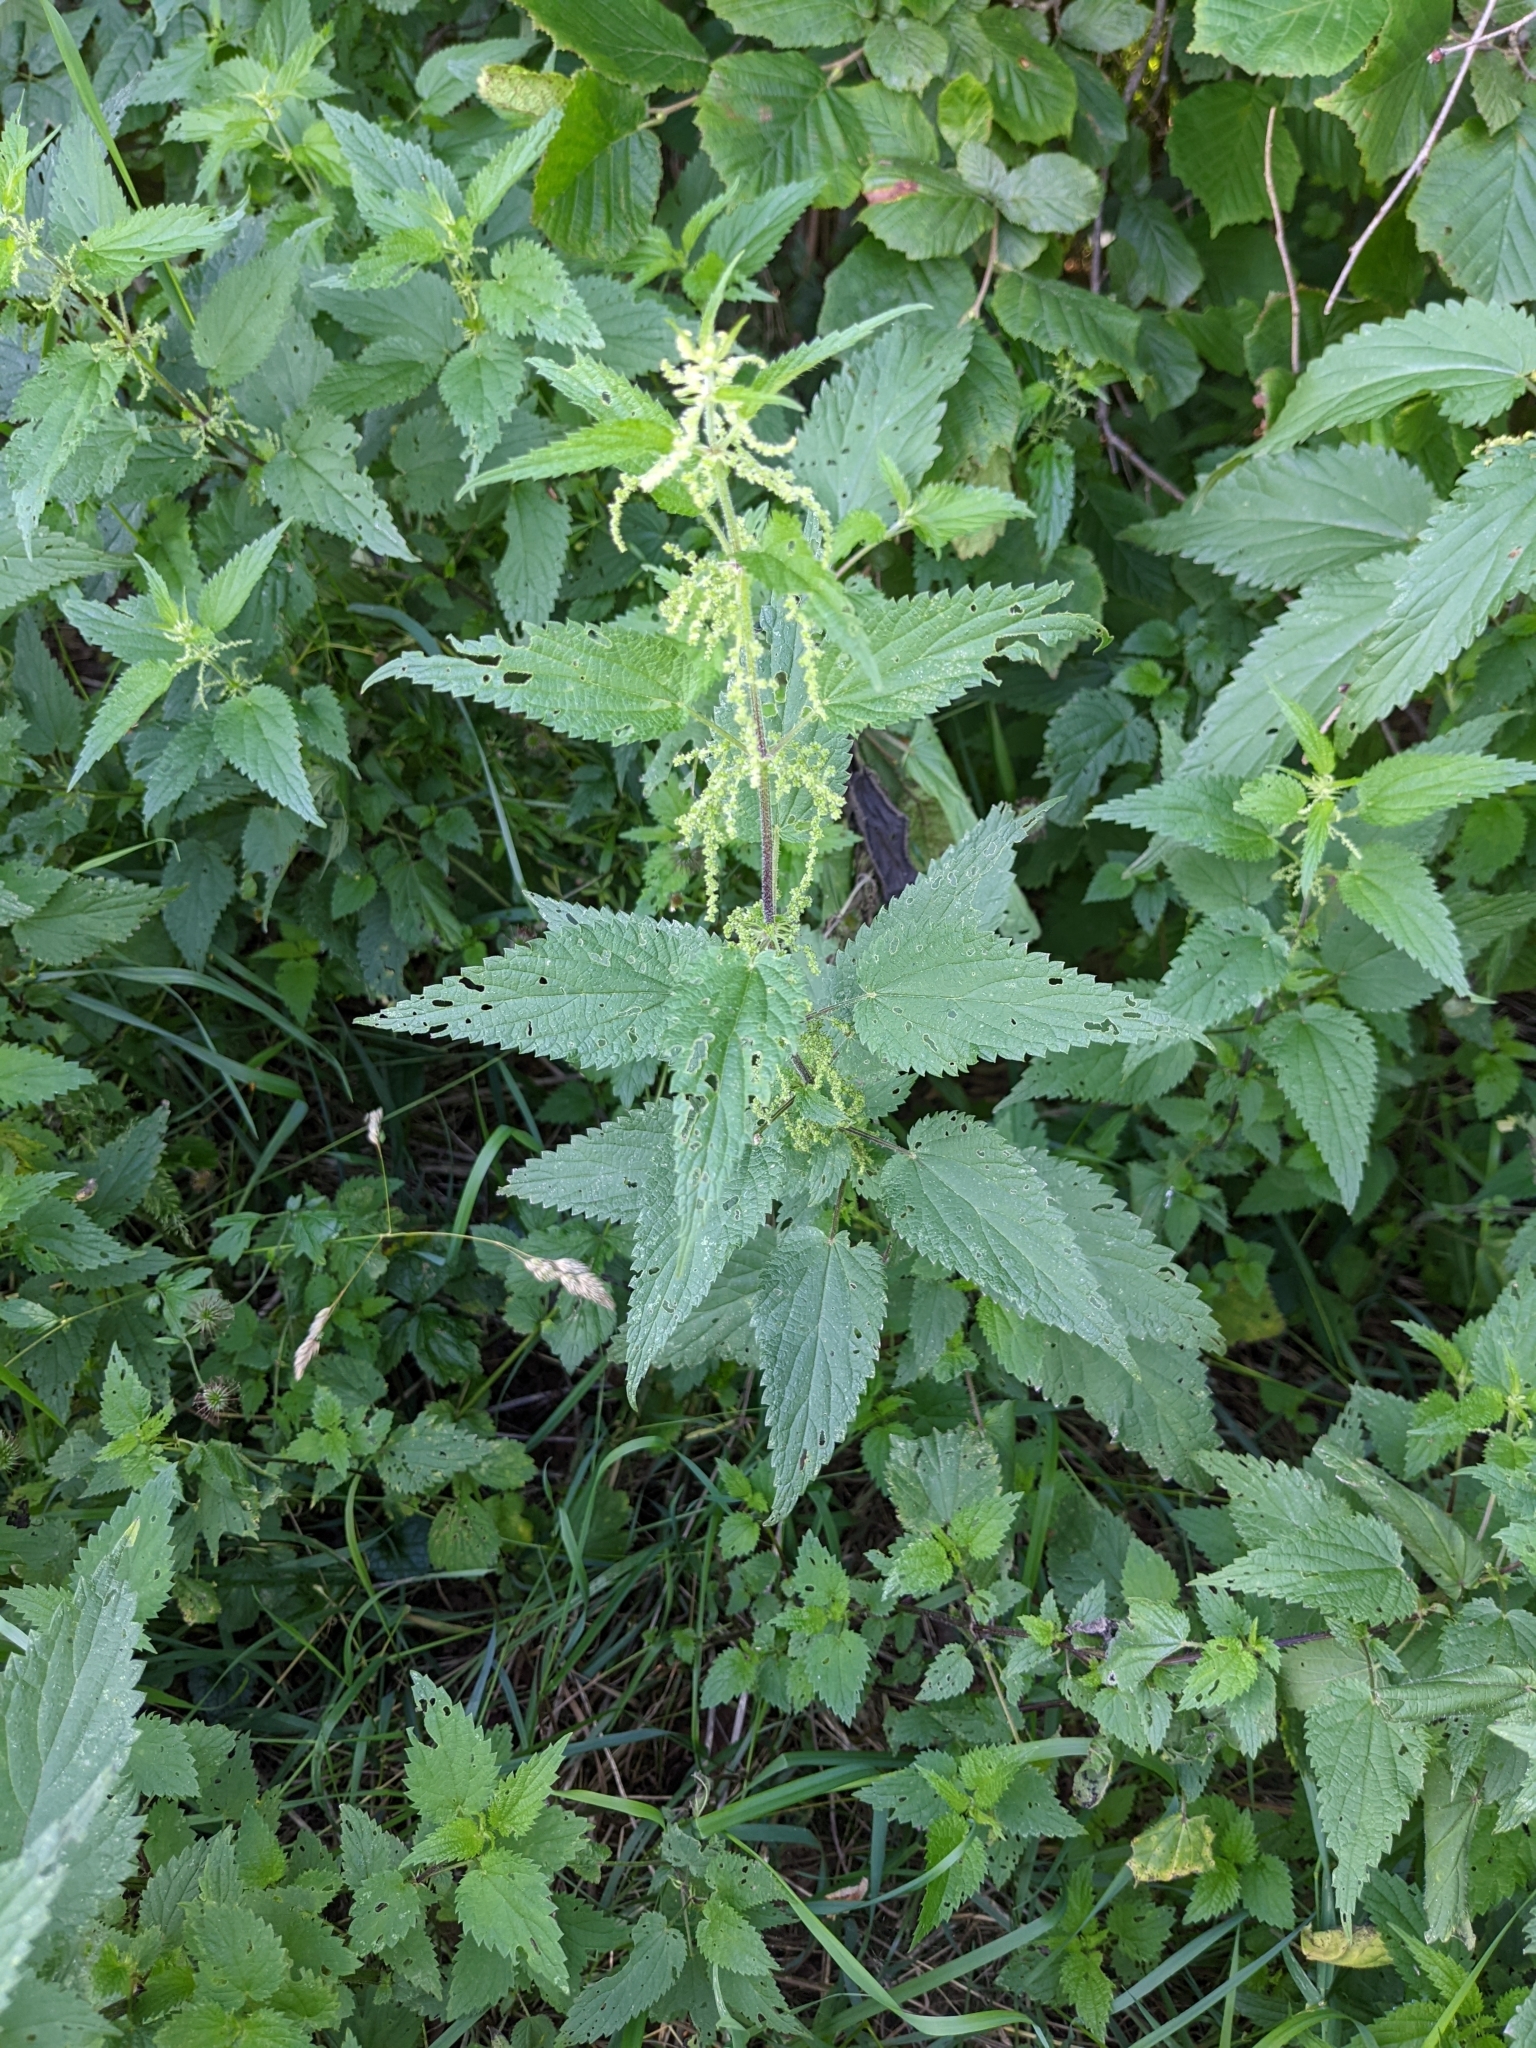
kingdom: Plantae
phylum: Tracheophyta
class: Magnoliopsida
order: Rosales
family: Urticaceae
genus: Urtica
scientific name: Urtica dioica
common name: Common nettle
